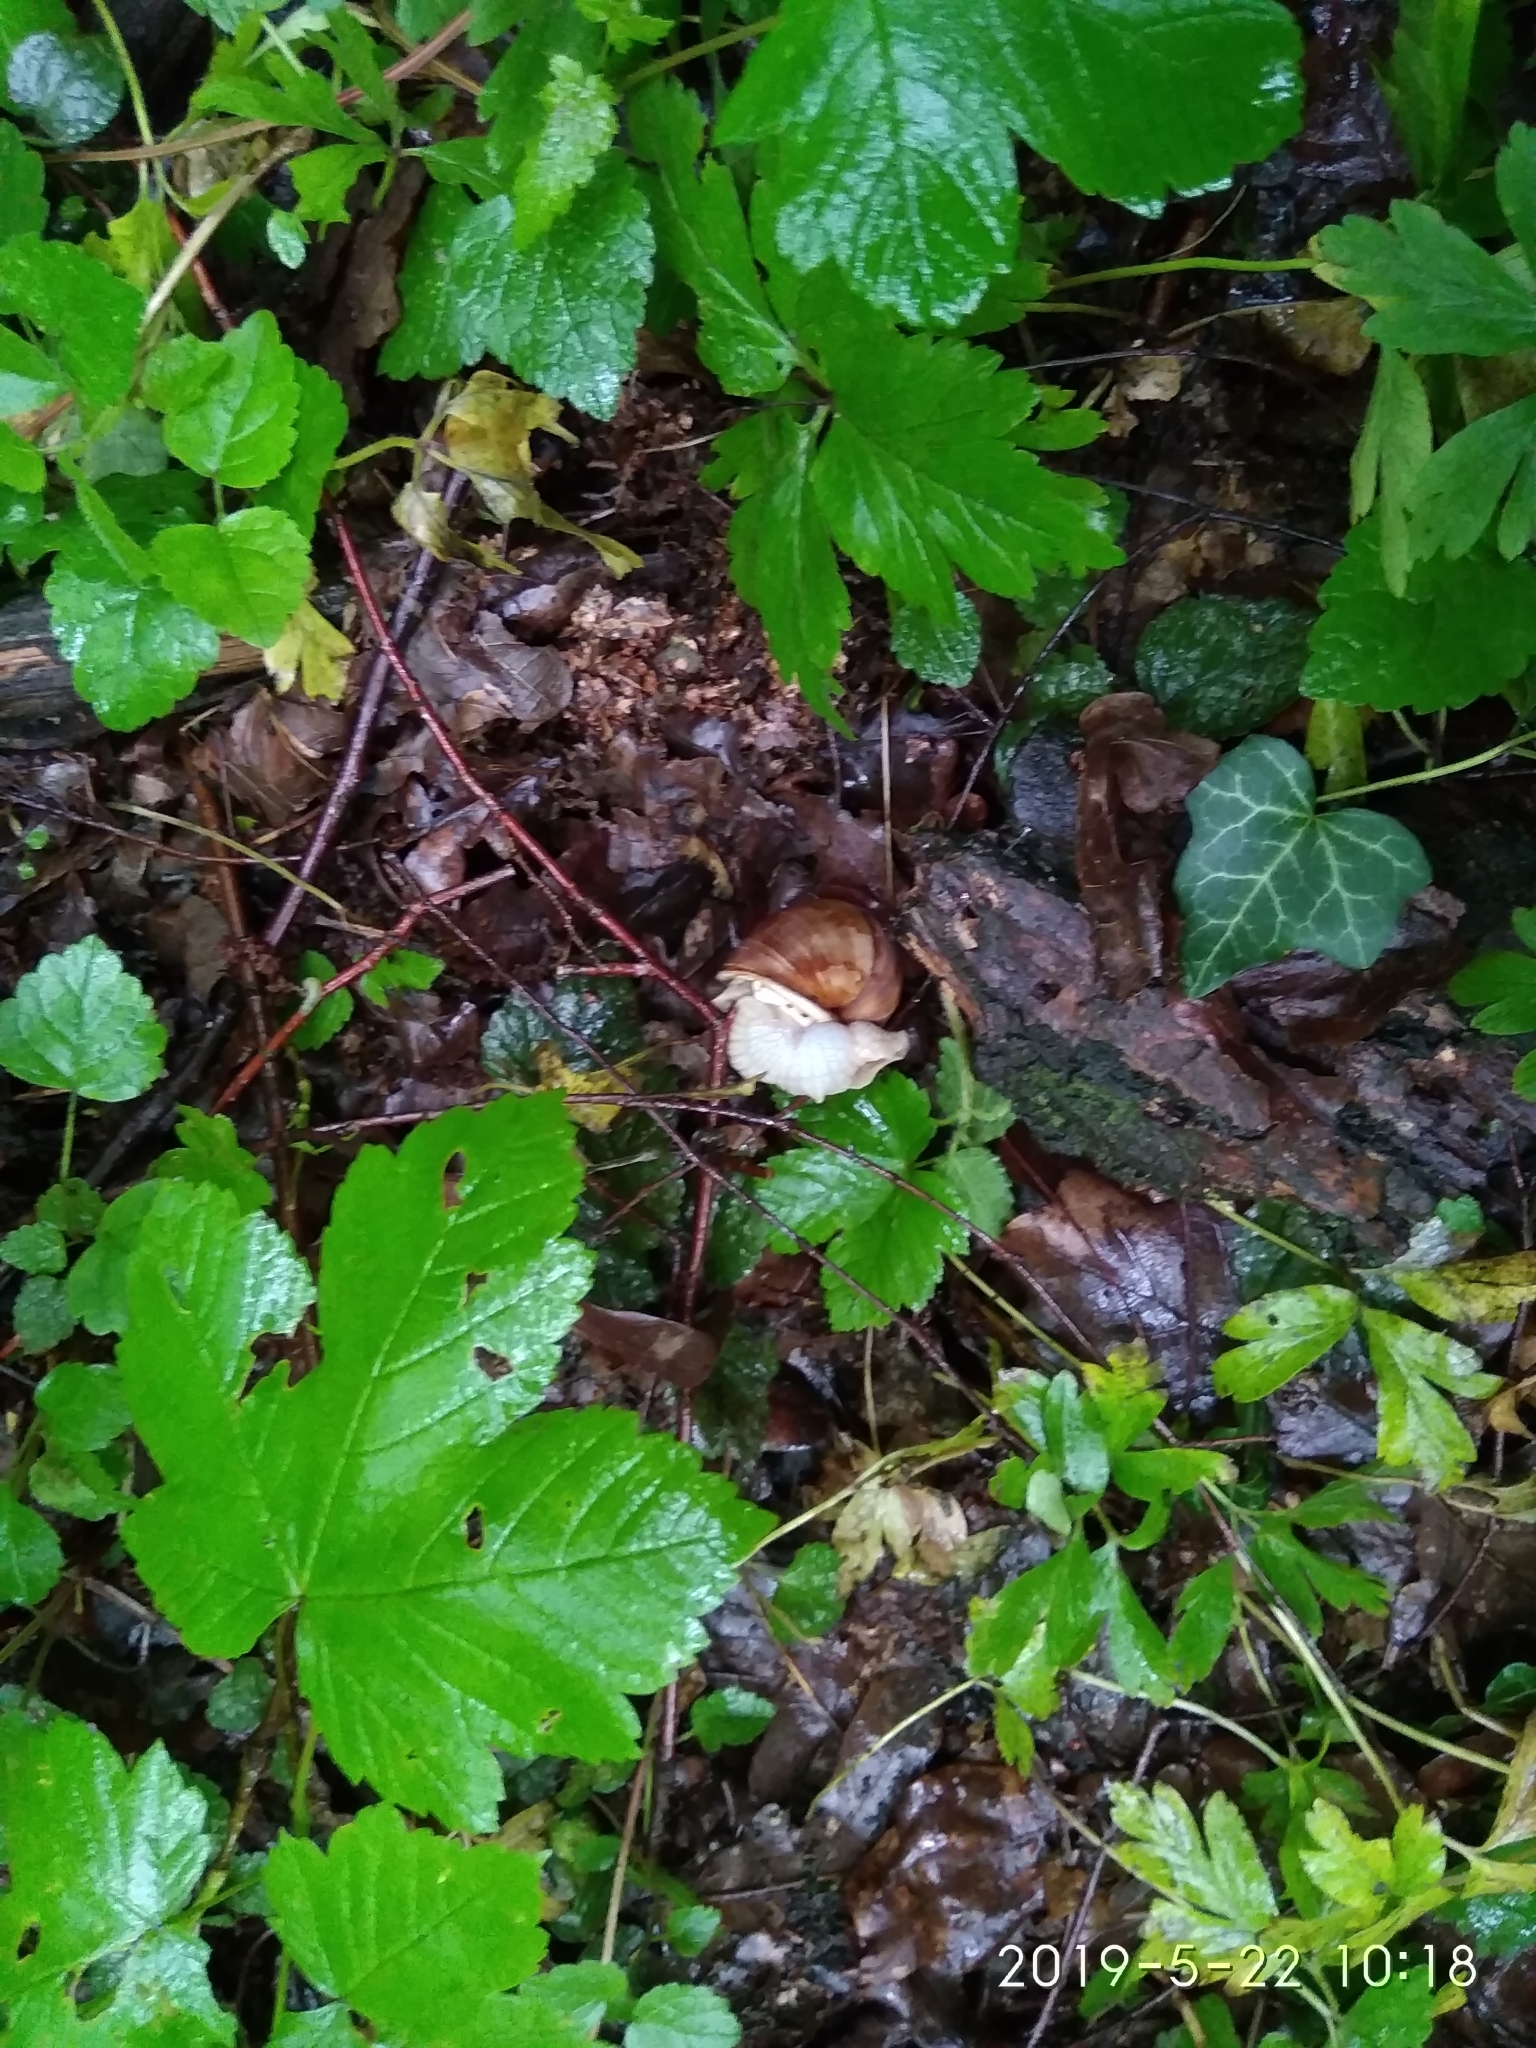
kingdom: Animalia
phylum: Mollusca
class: Gastropoda
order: Stylommatophora
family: Helicidae
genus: Helix
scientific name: Helix pomatia
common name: Roman snail
